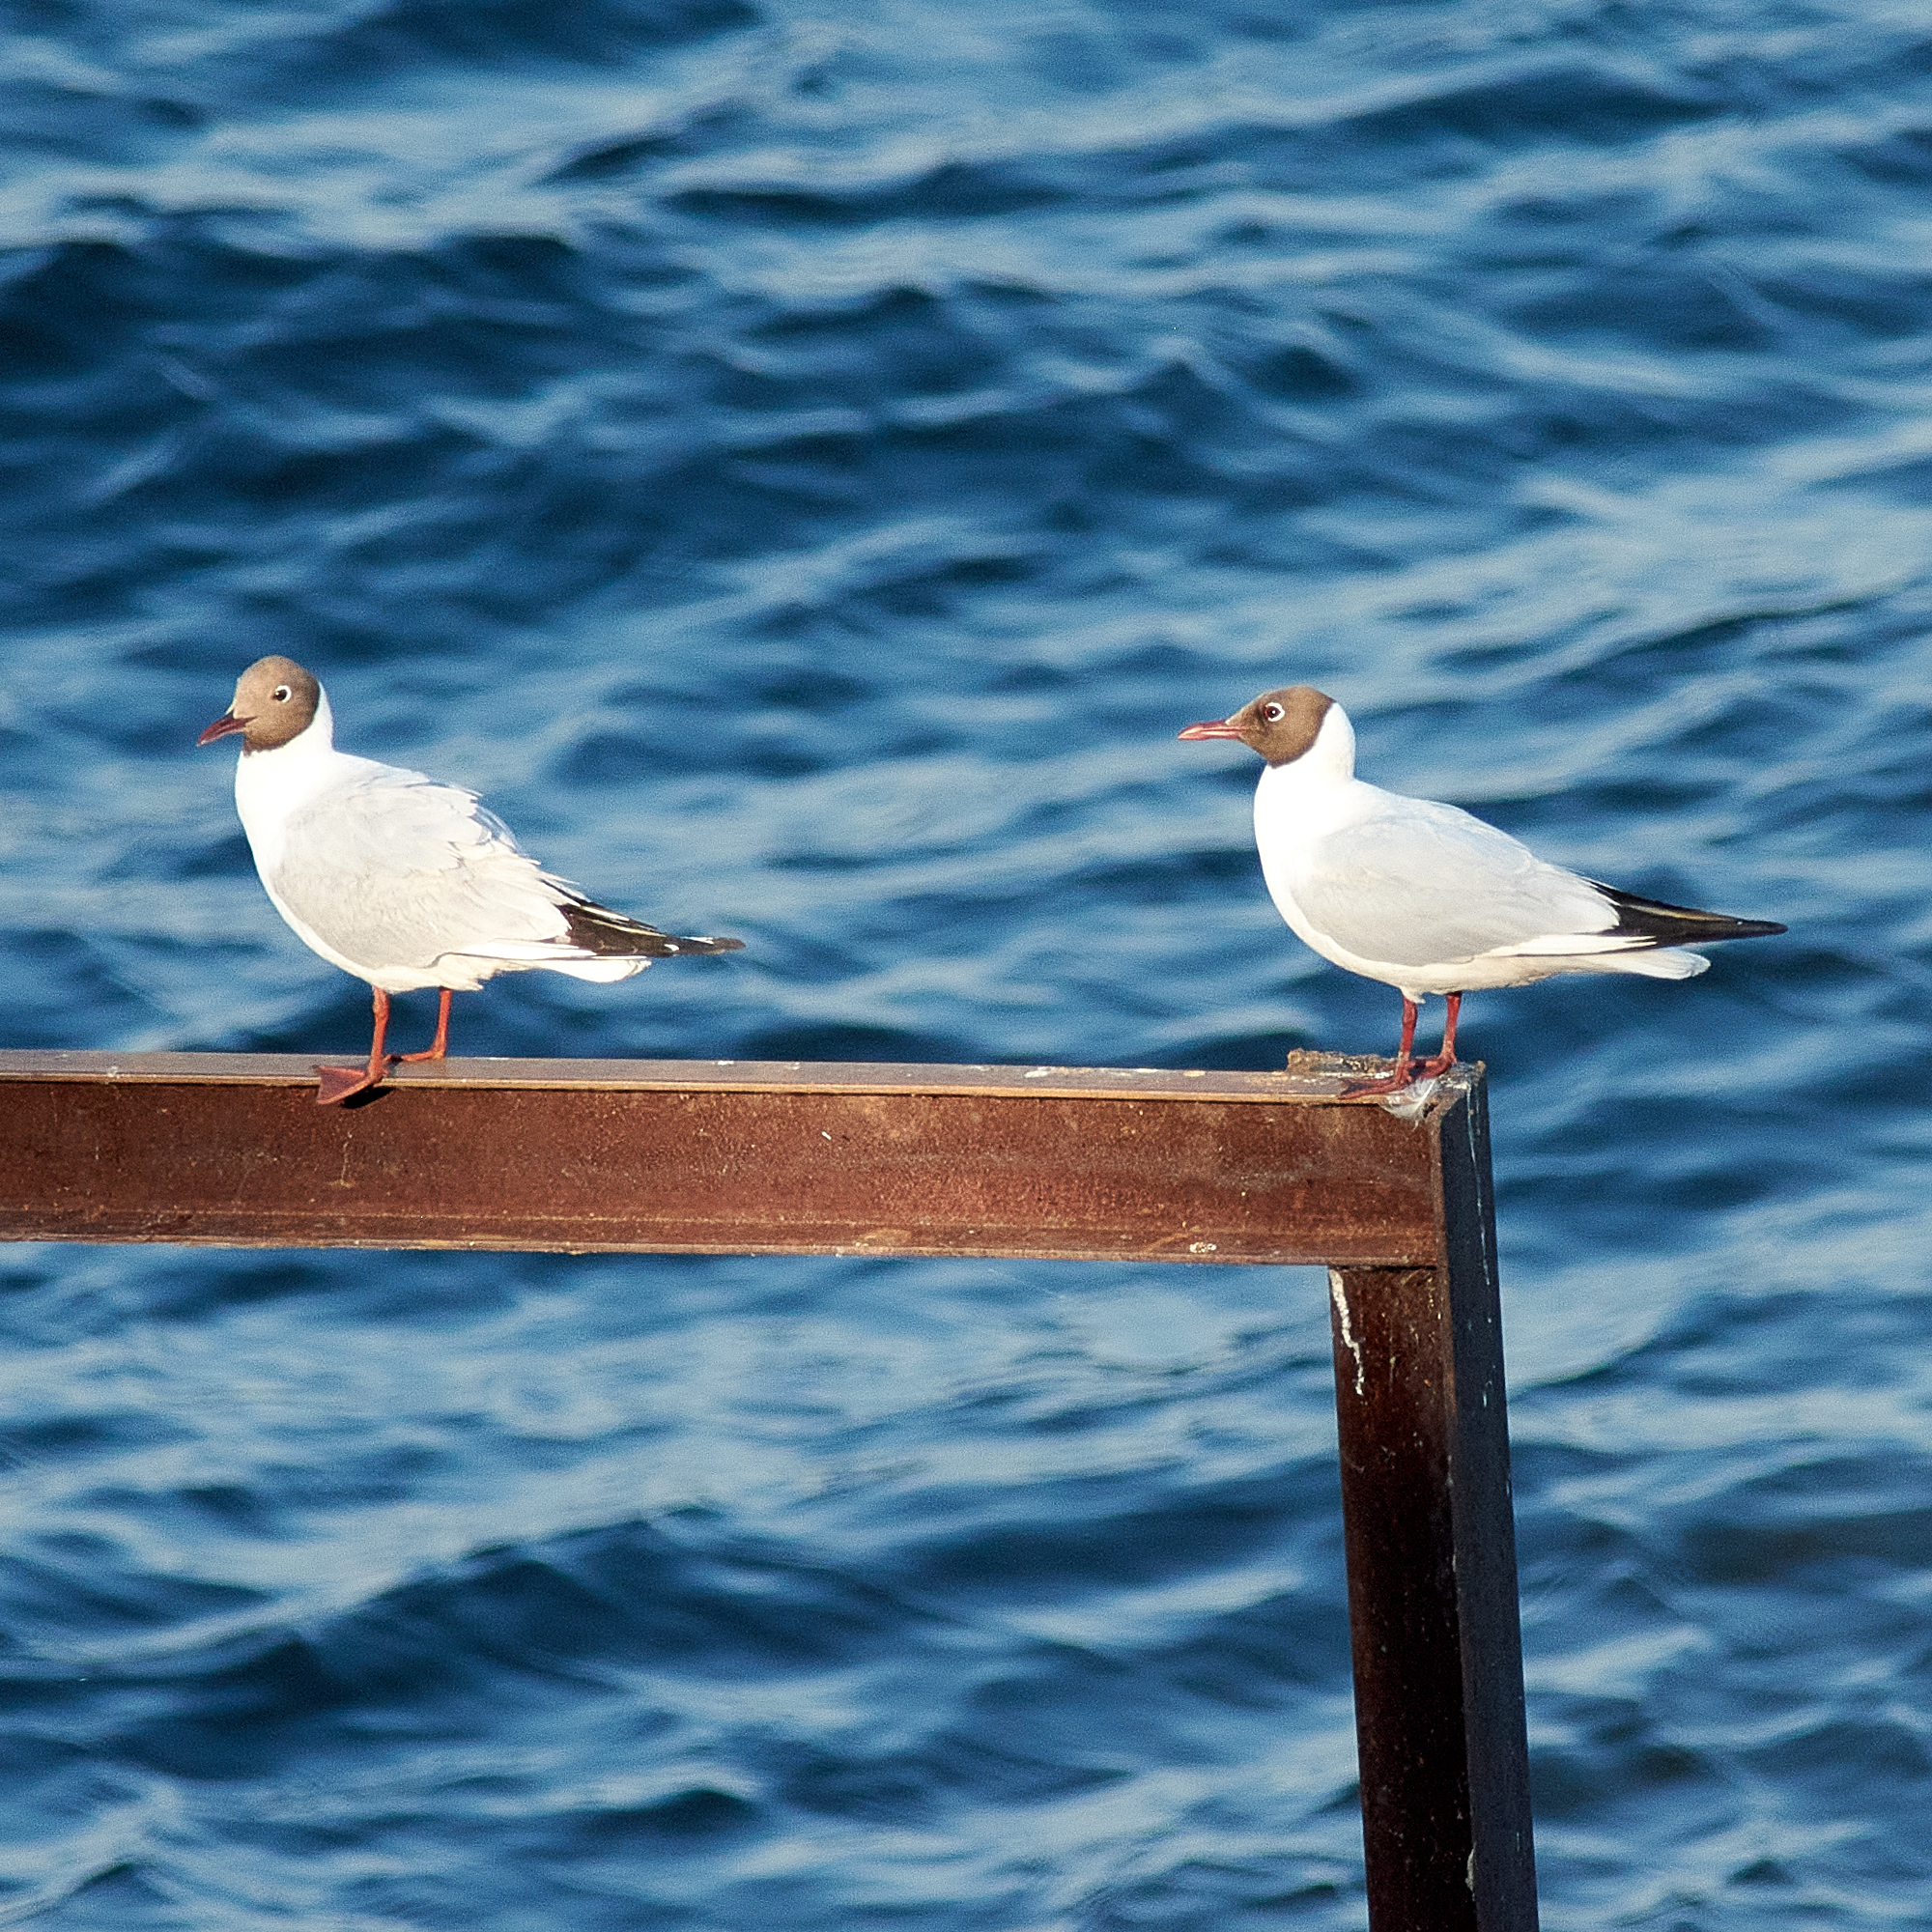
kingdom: Animalia
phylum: Chordata
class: Aves
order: Charadriiformes
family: Laridae
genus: Chroicocephalus
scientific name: Chroicocephalus ridibundus
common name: Black-headed gull
